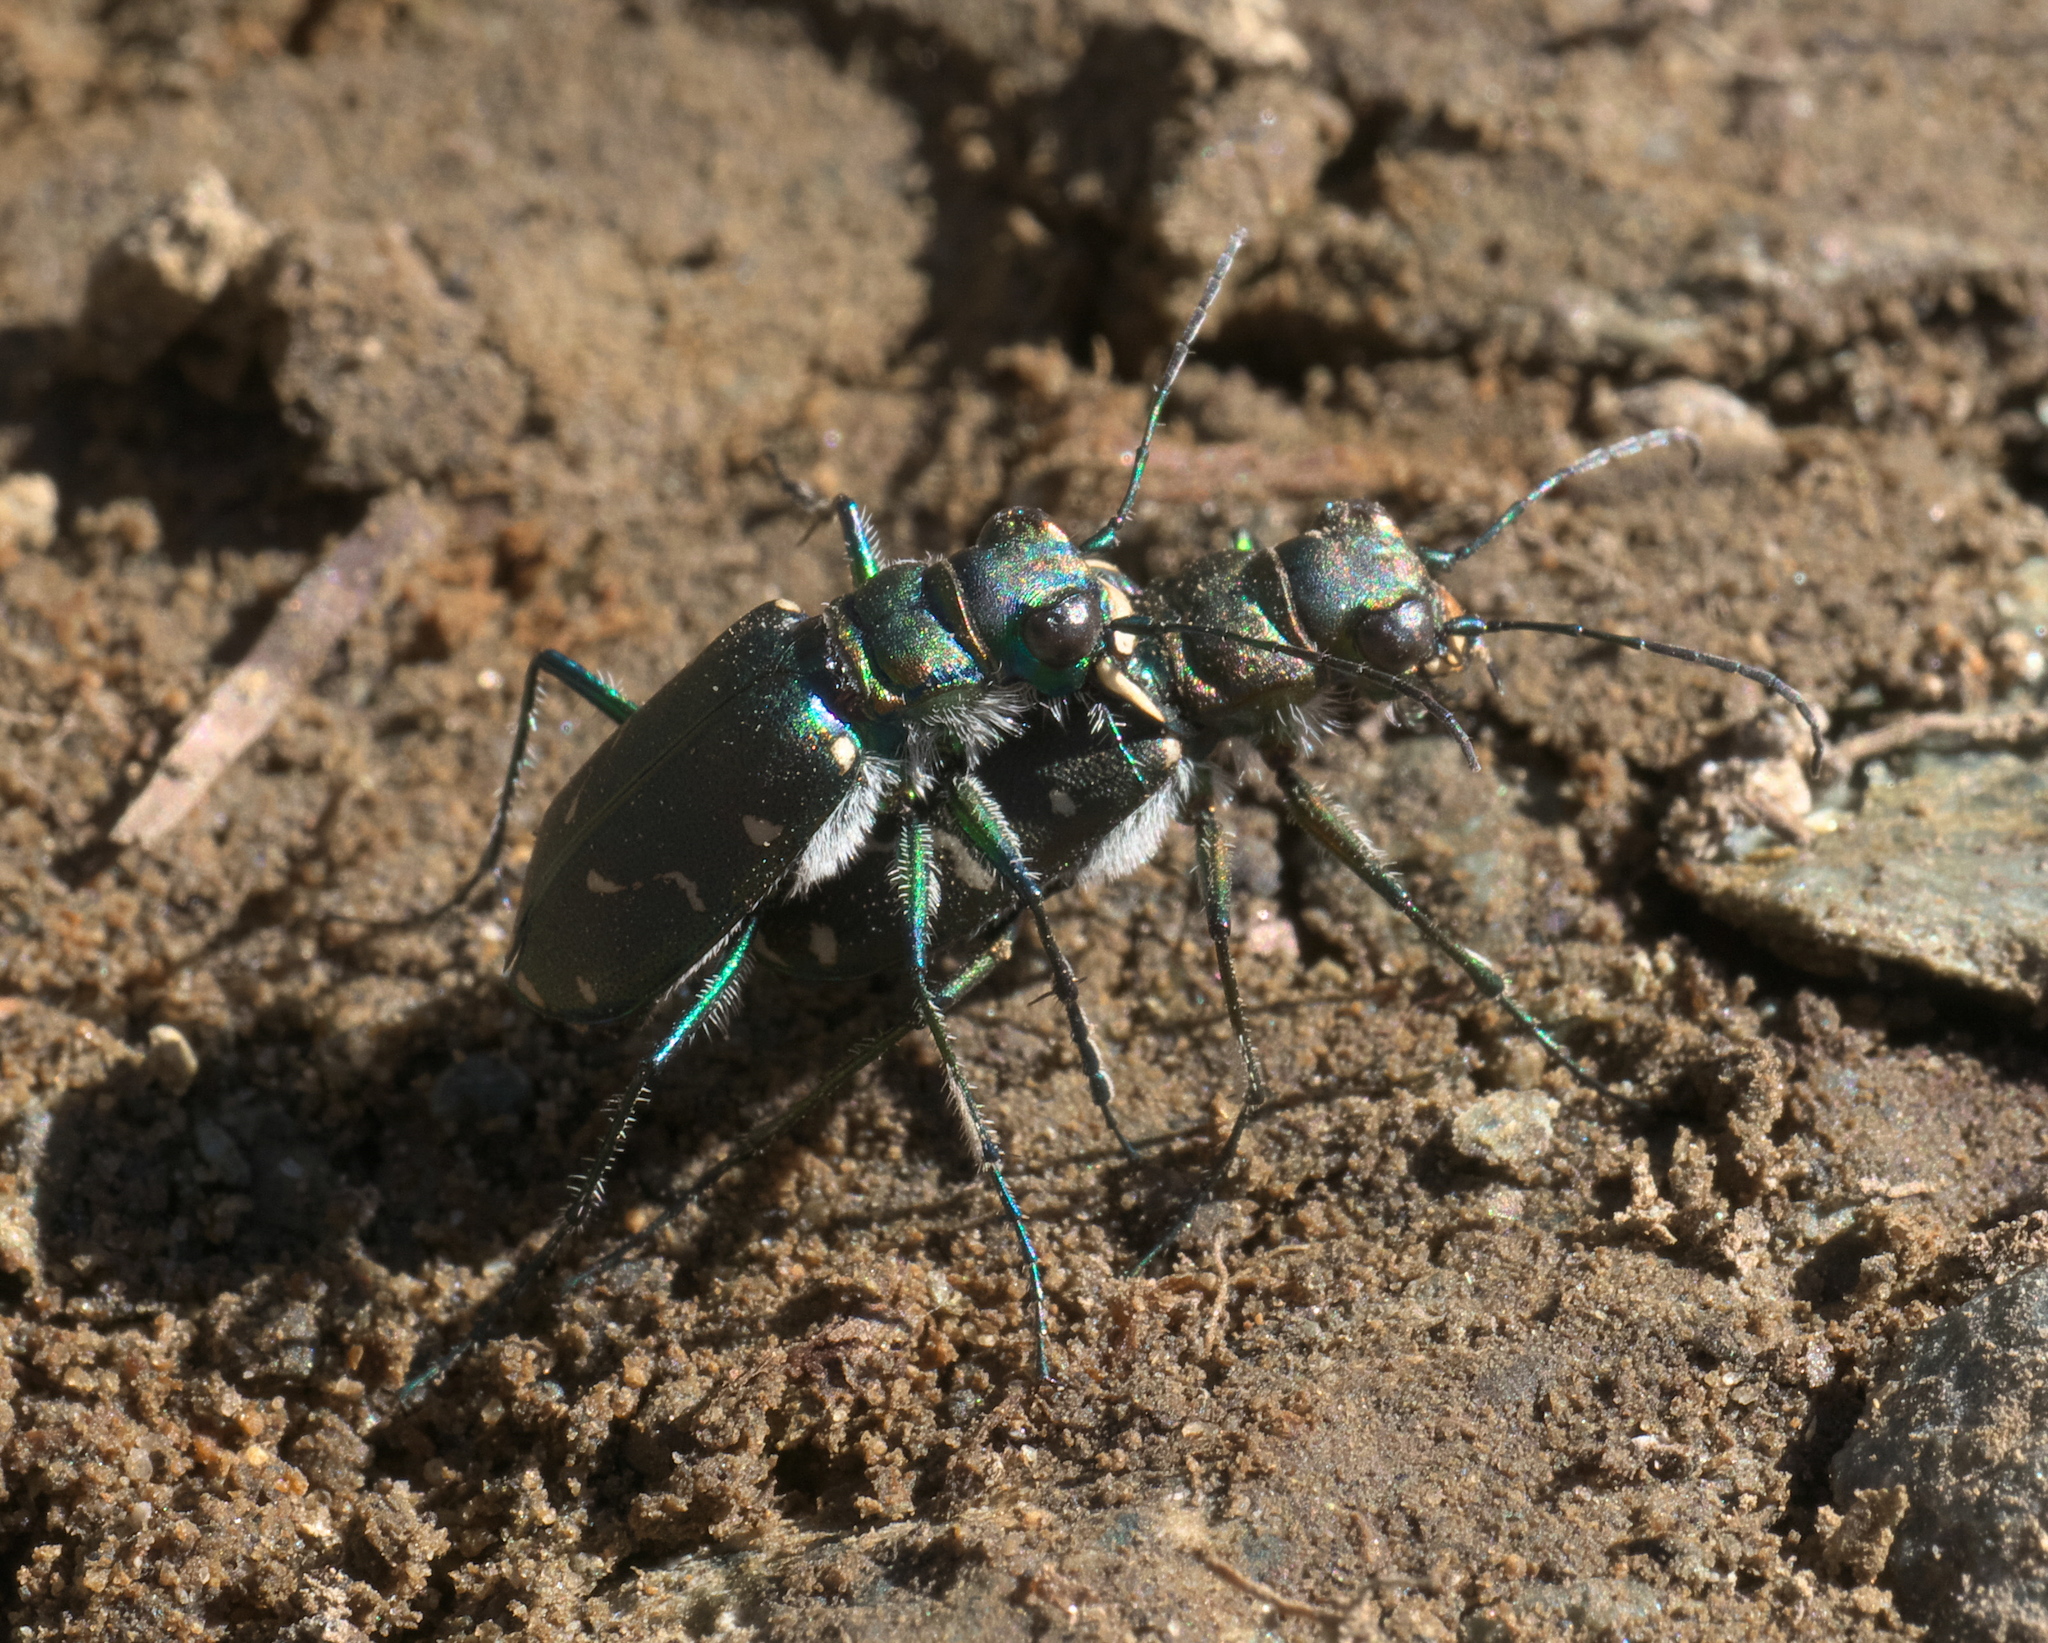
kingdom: Animalia
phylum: Arthropoda
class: Insecta
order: Coleoptera
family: Carabidae
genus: Cicindela
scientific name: Cicindela depressula
